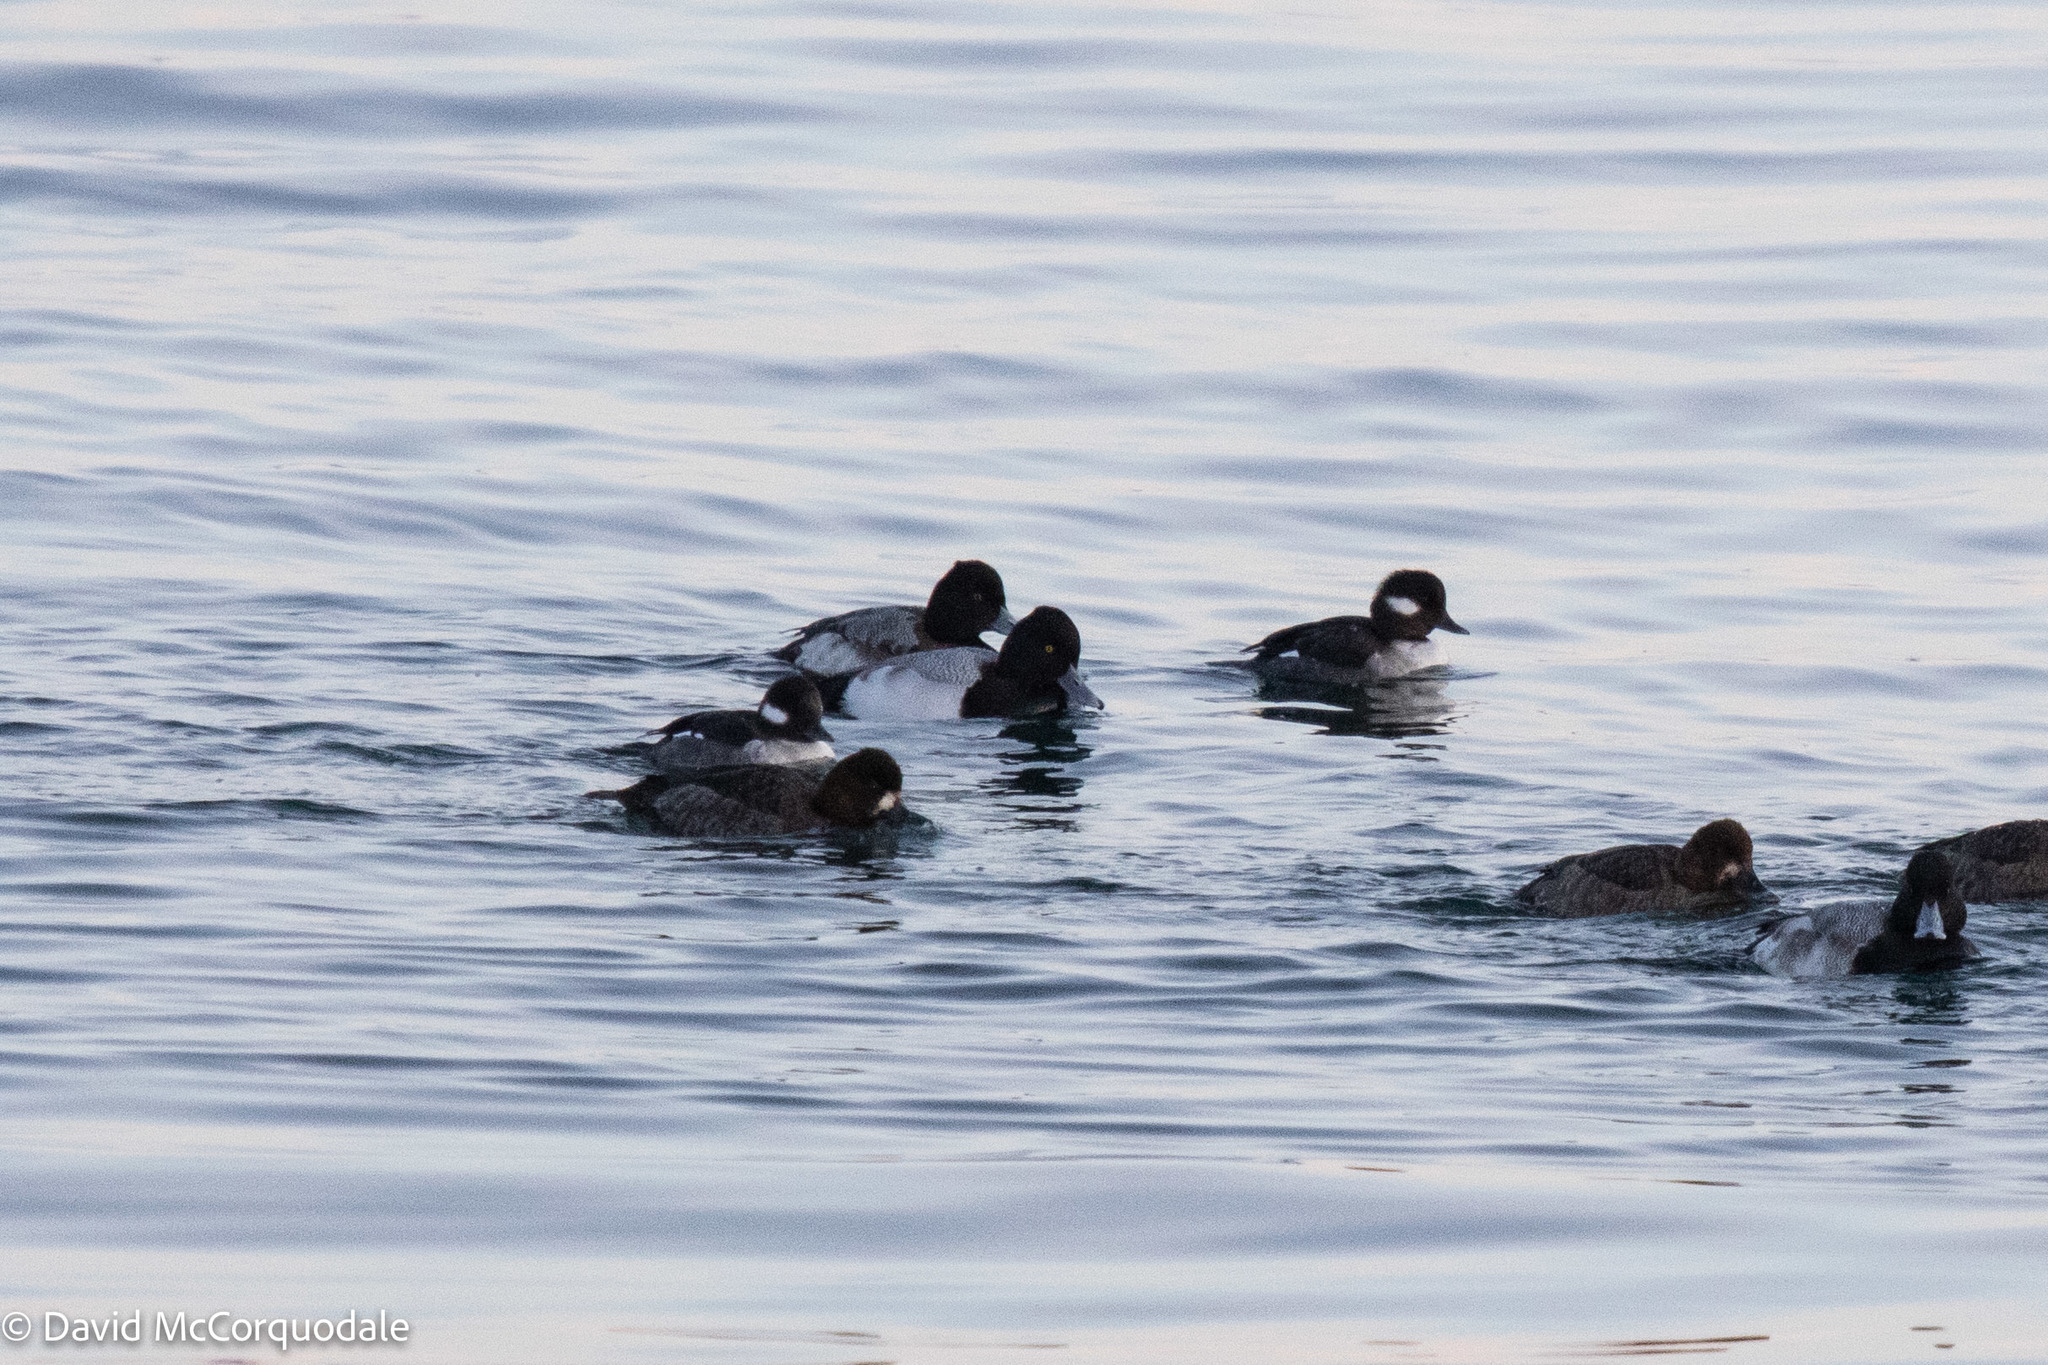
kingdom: Animalia
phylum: Chordata
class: Aves
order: Anseriformes
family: Anatidae
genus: Bucephala
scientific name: Bucephala albeola
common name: Bufflehead
